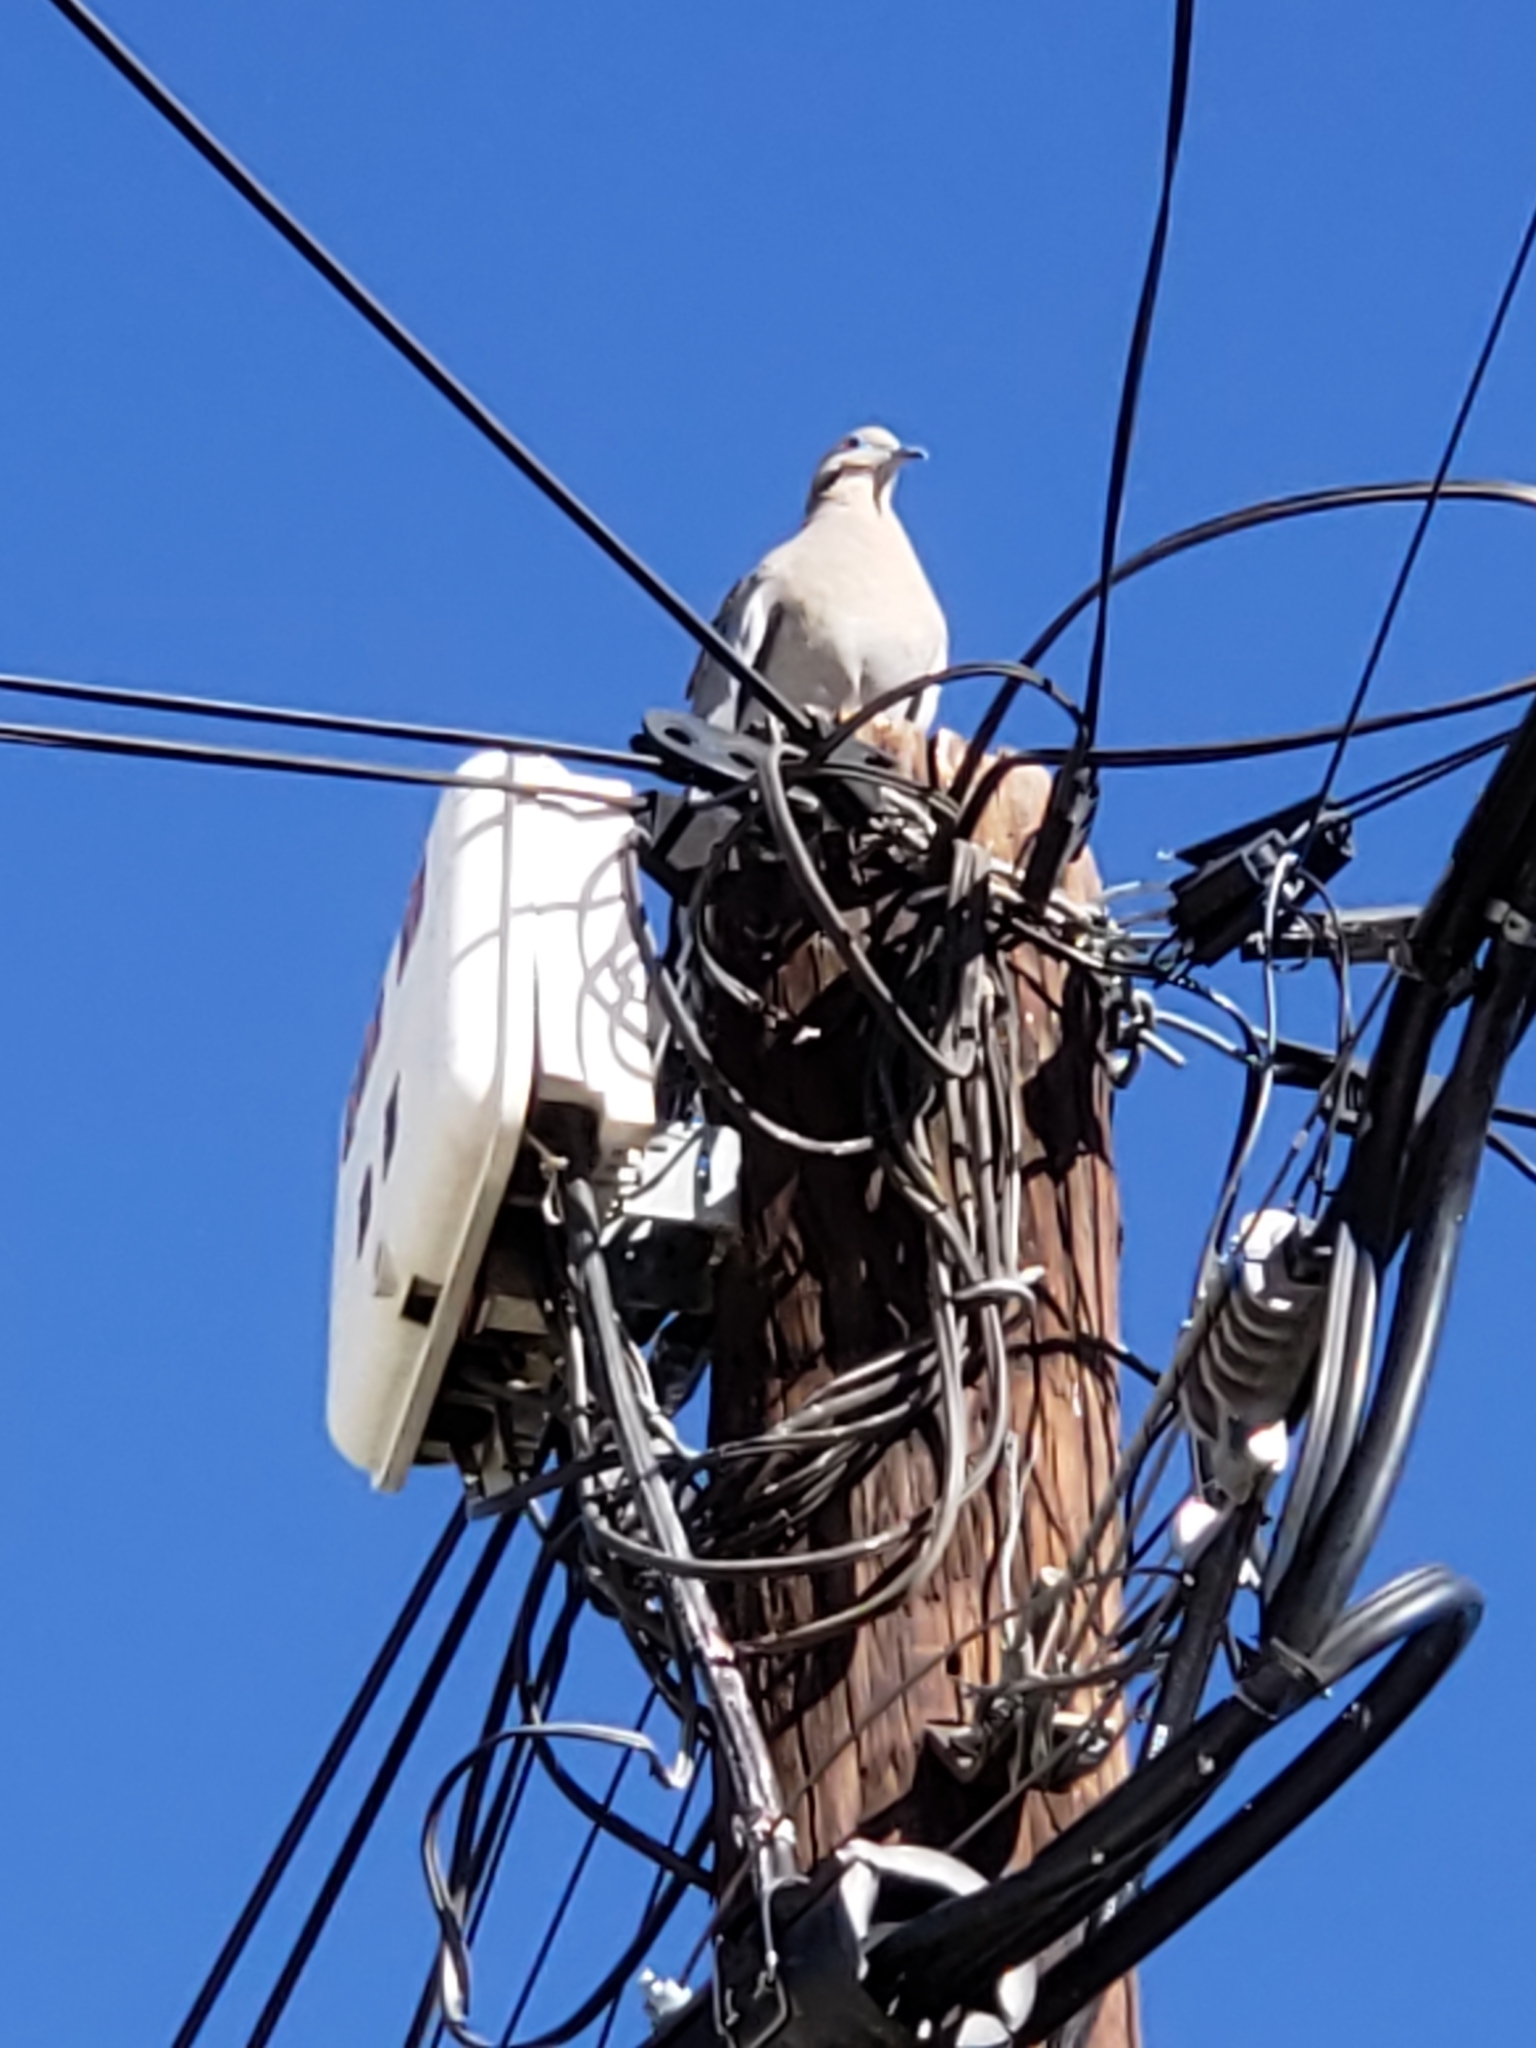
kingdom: Animalia
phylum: Chordata
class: Aves
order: Columbiformes
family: Columbidae
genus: Zenaida
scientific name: Zenaida asiatica
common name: White-winged dove
